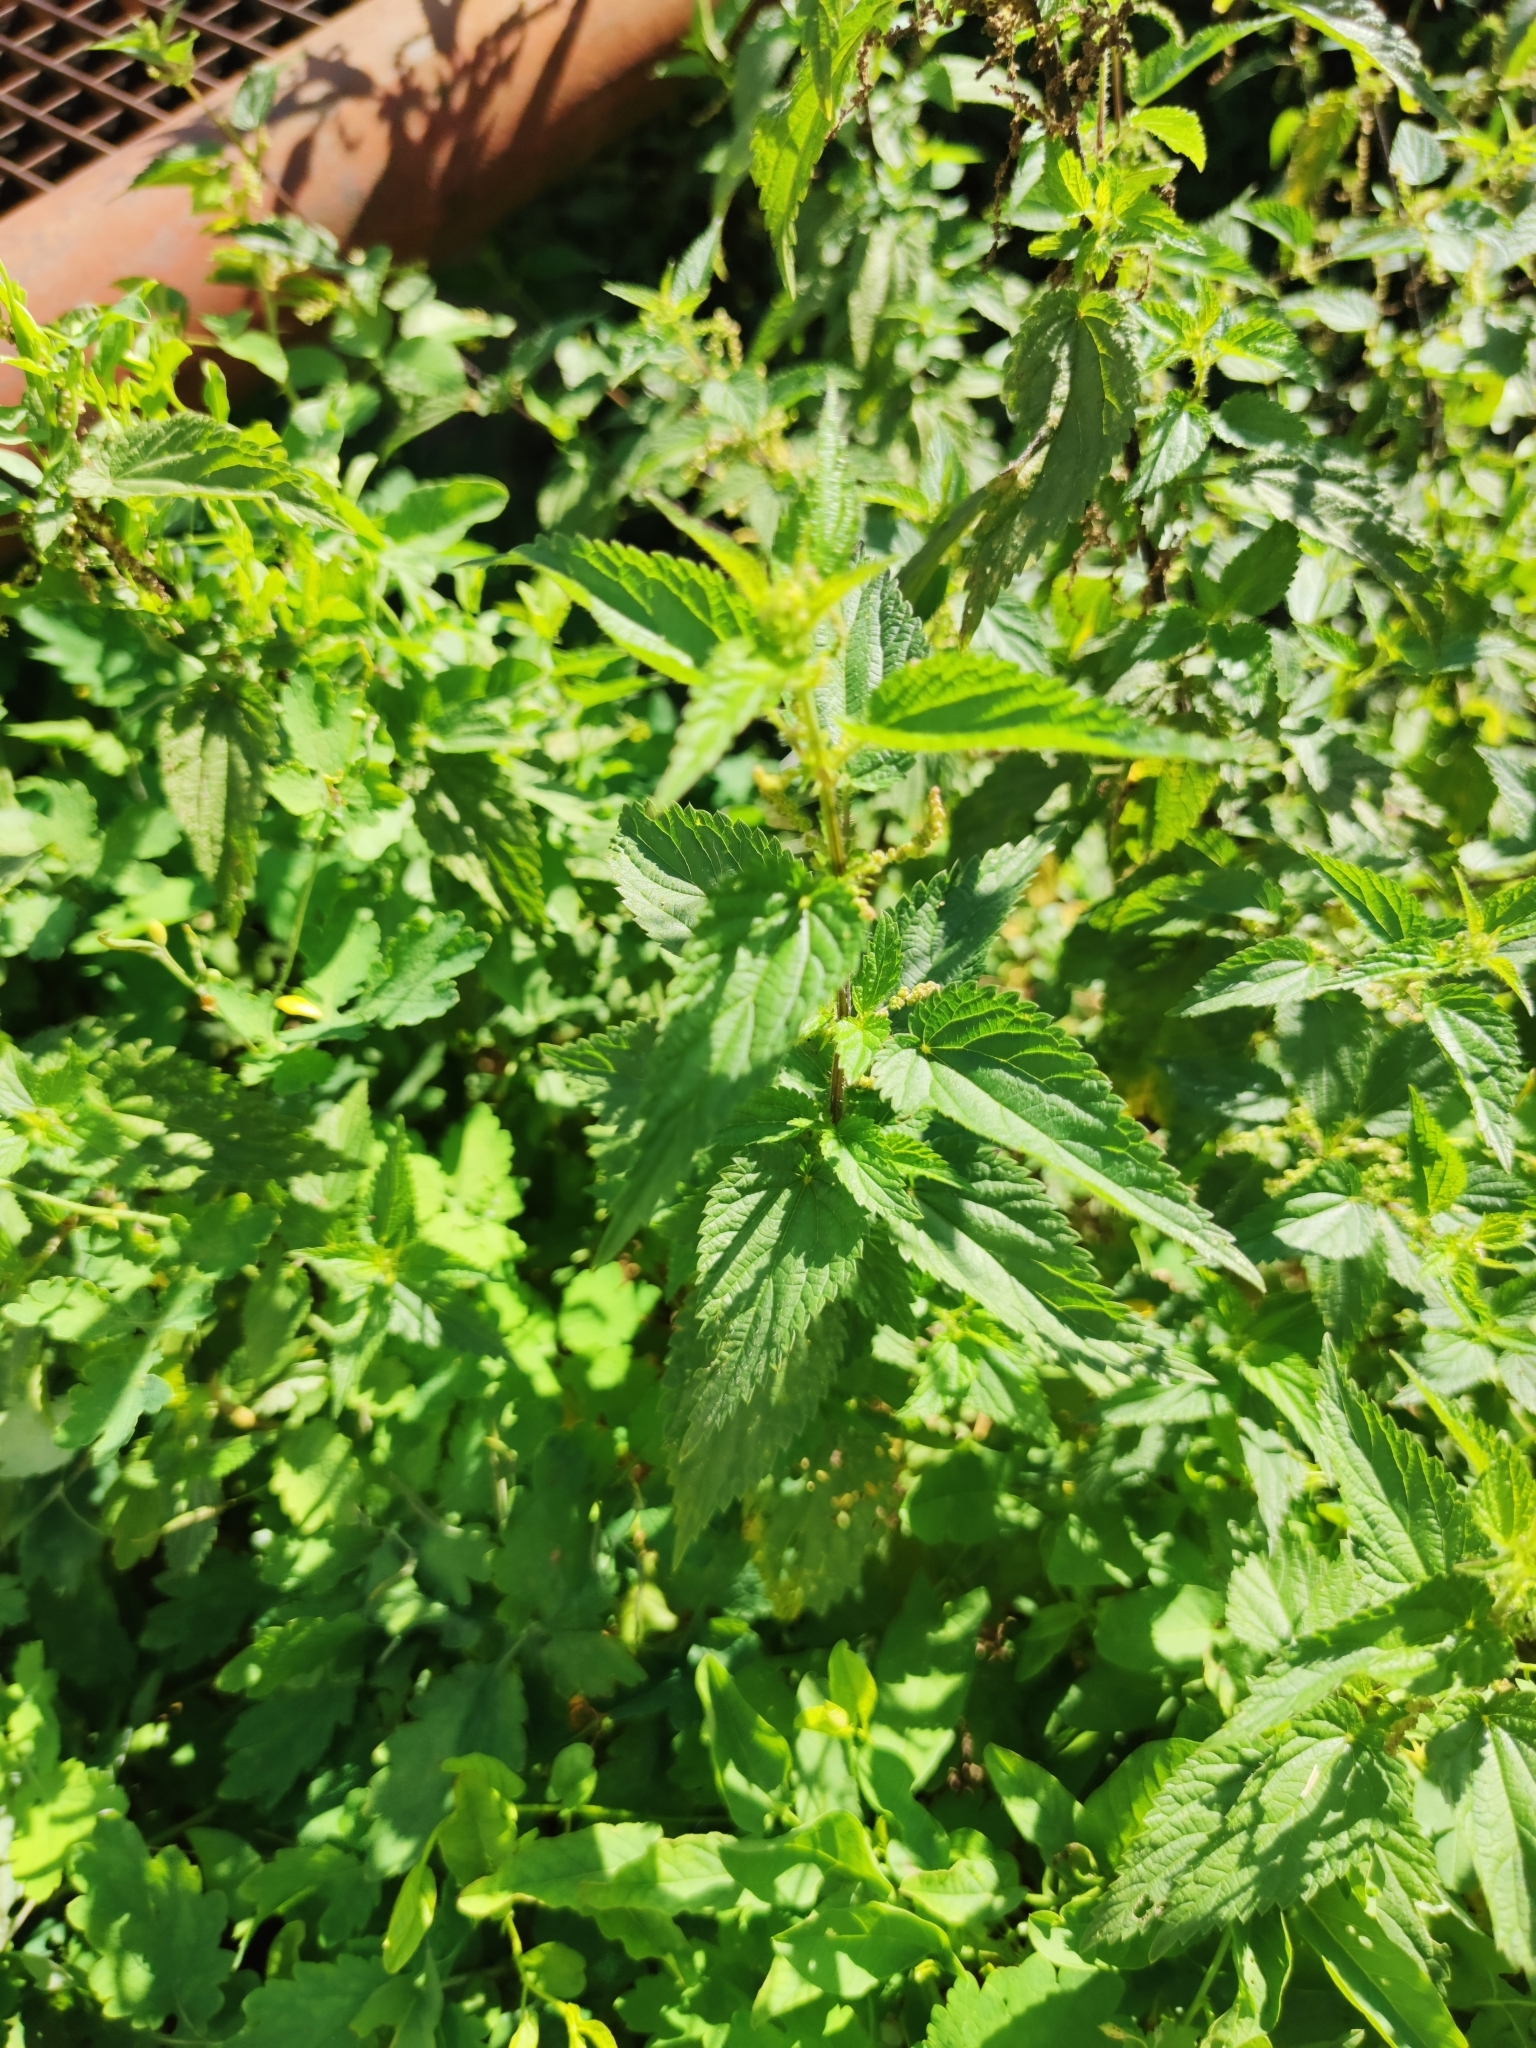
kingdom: Plantae
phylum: Tracheophyta
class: Magnoliopsida
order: Rosales
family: Urticaceae
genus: Urtica
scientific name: Urtica dioica
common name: Common nettle
